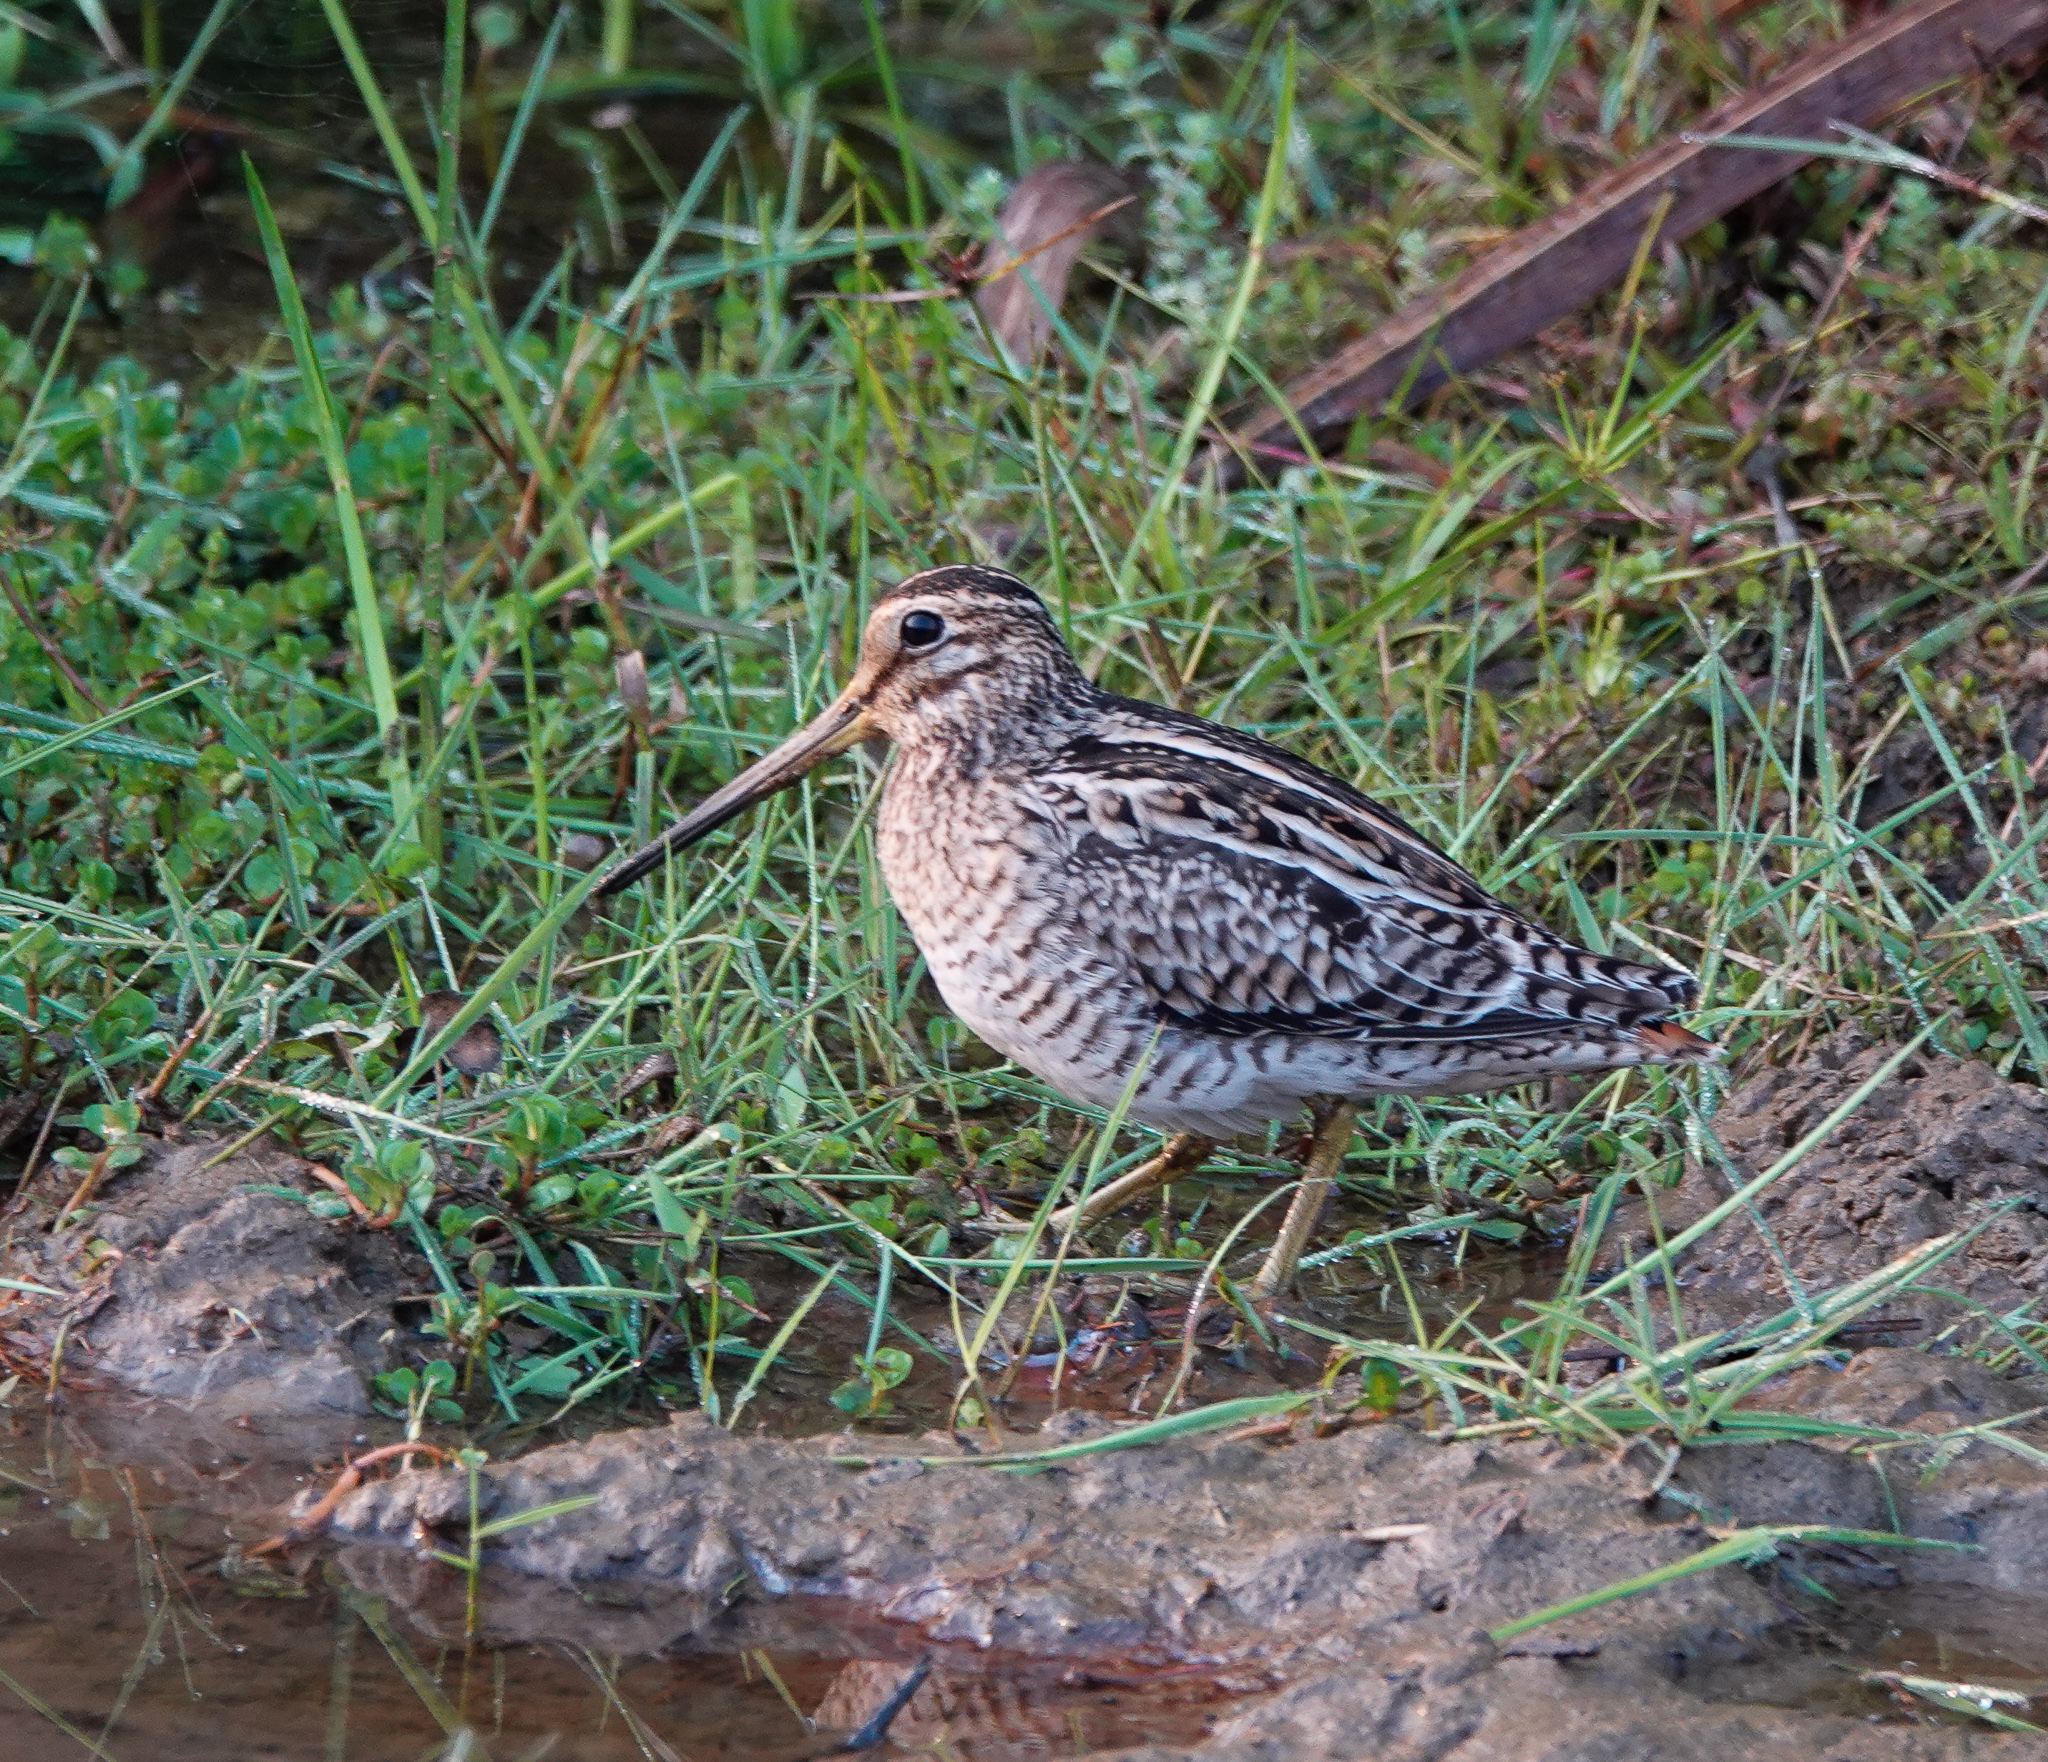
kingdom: Animalia
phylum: Chordata
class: Aves
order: Charadriiformes
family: Scolopacidae
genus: Gallinago
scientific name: Gallinago gallinago
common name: Common snipe
